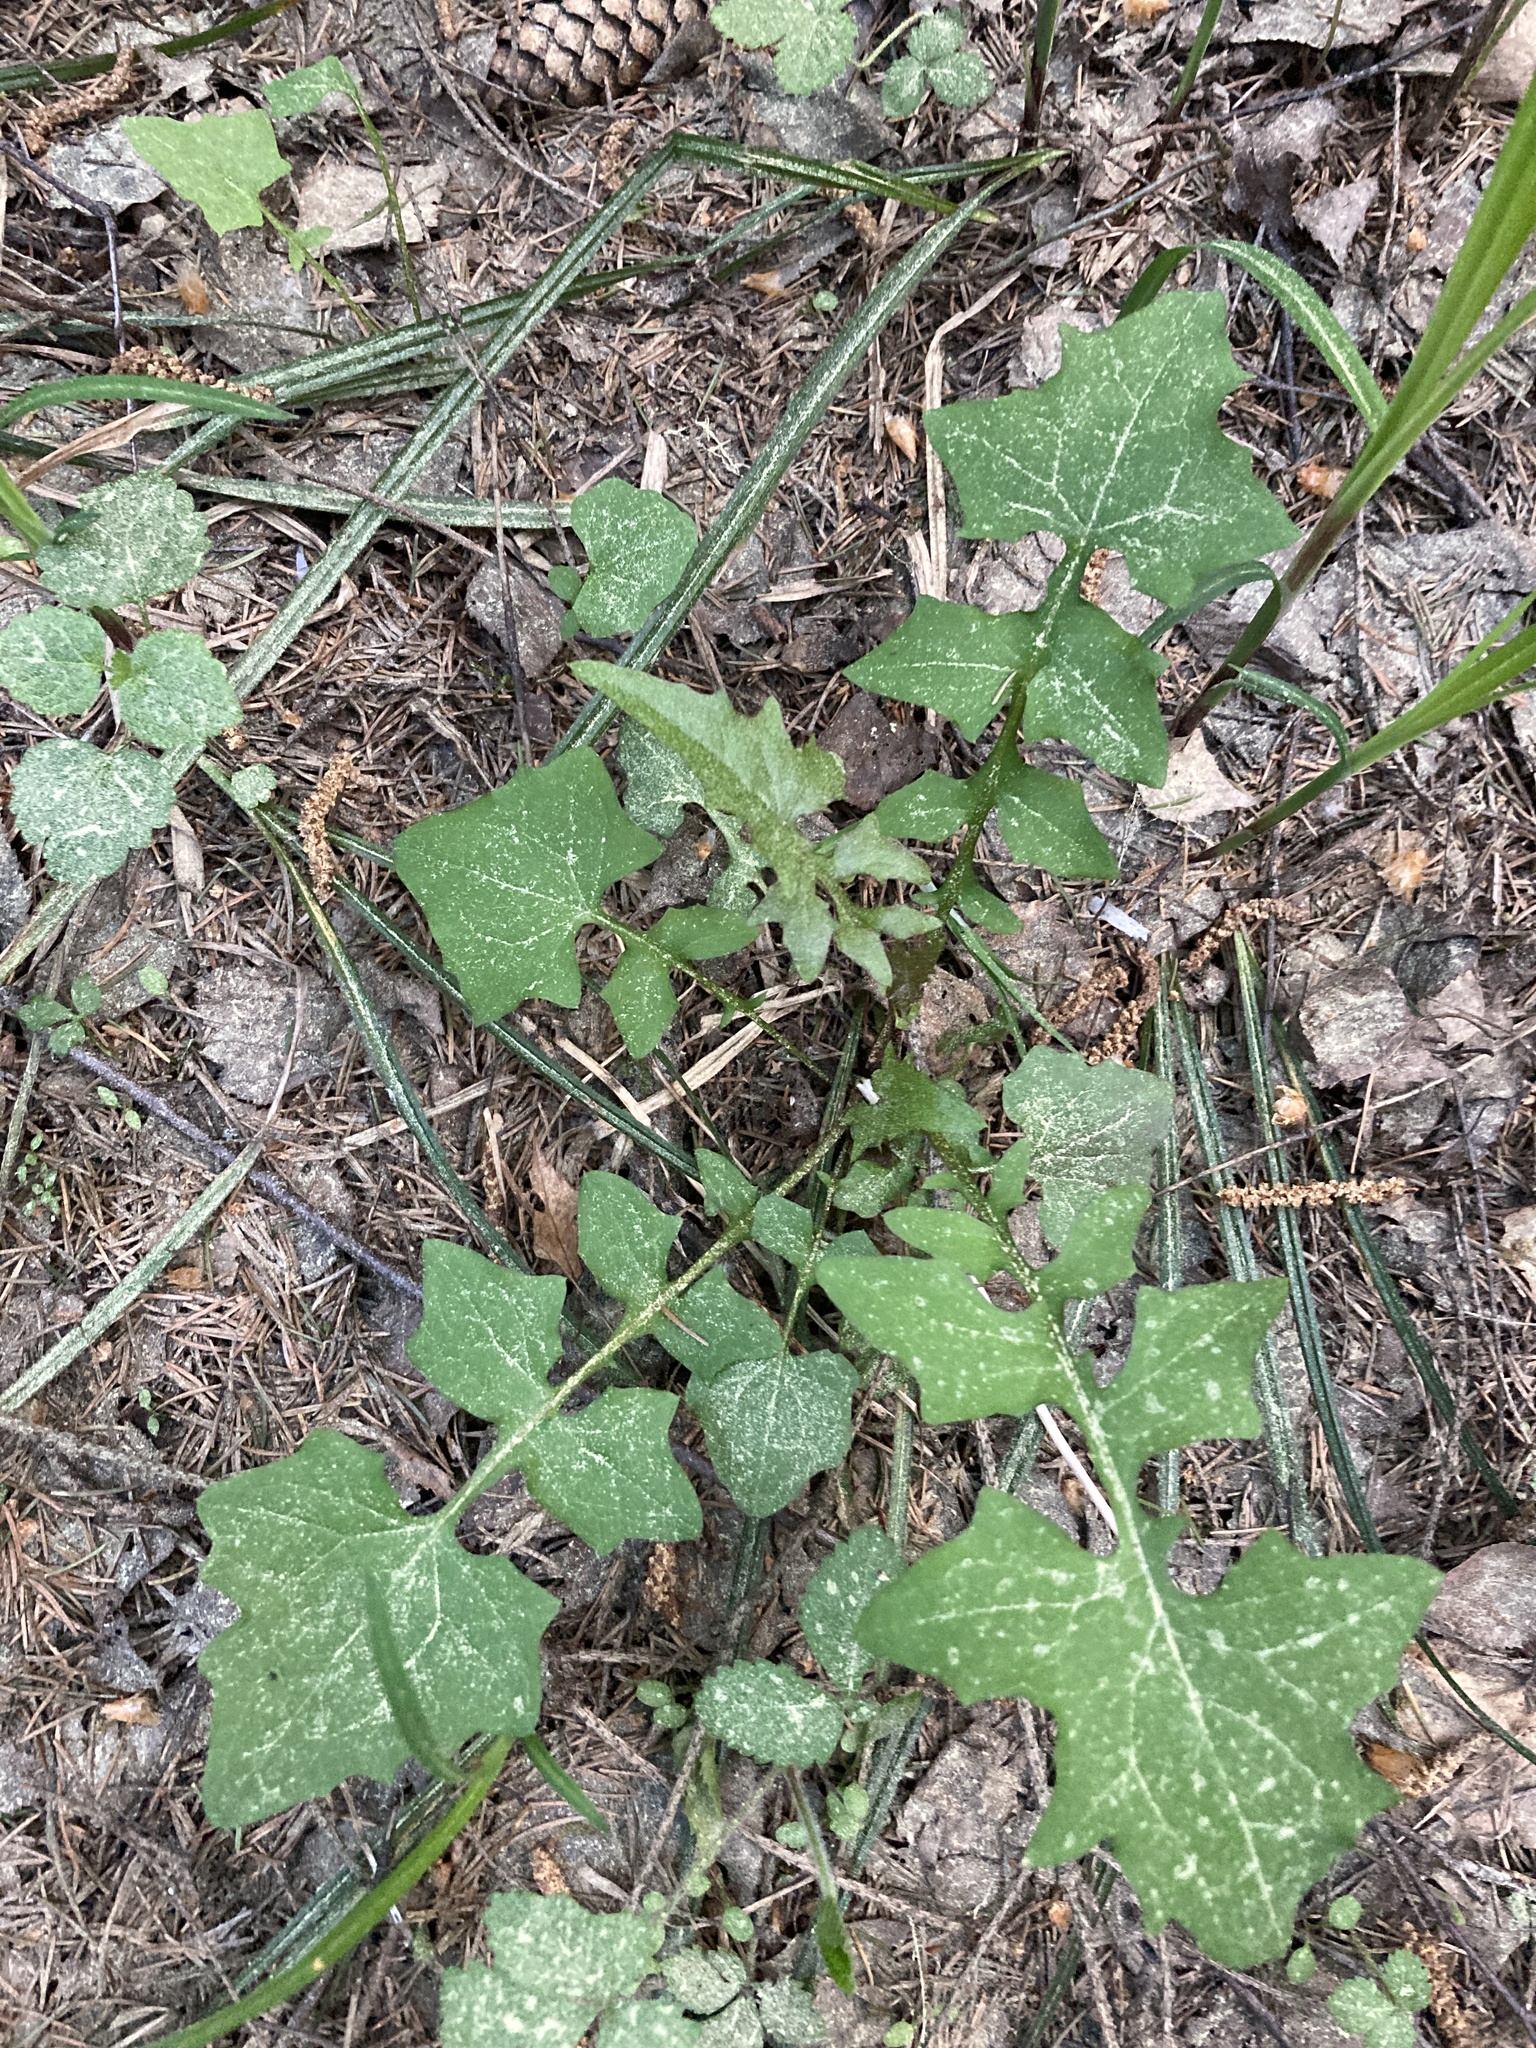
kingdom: Plantae
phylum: Tracheophyta
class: Magnoliopsida
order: Asterales
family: Asteraceae
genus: Mycelis
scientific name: Mycelis muralis
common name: Wall lettuce
